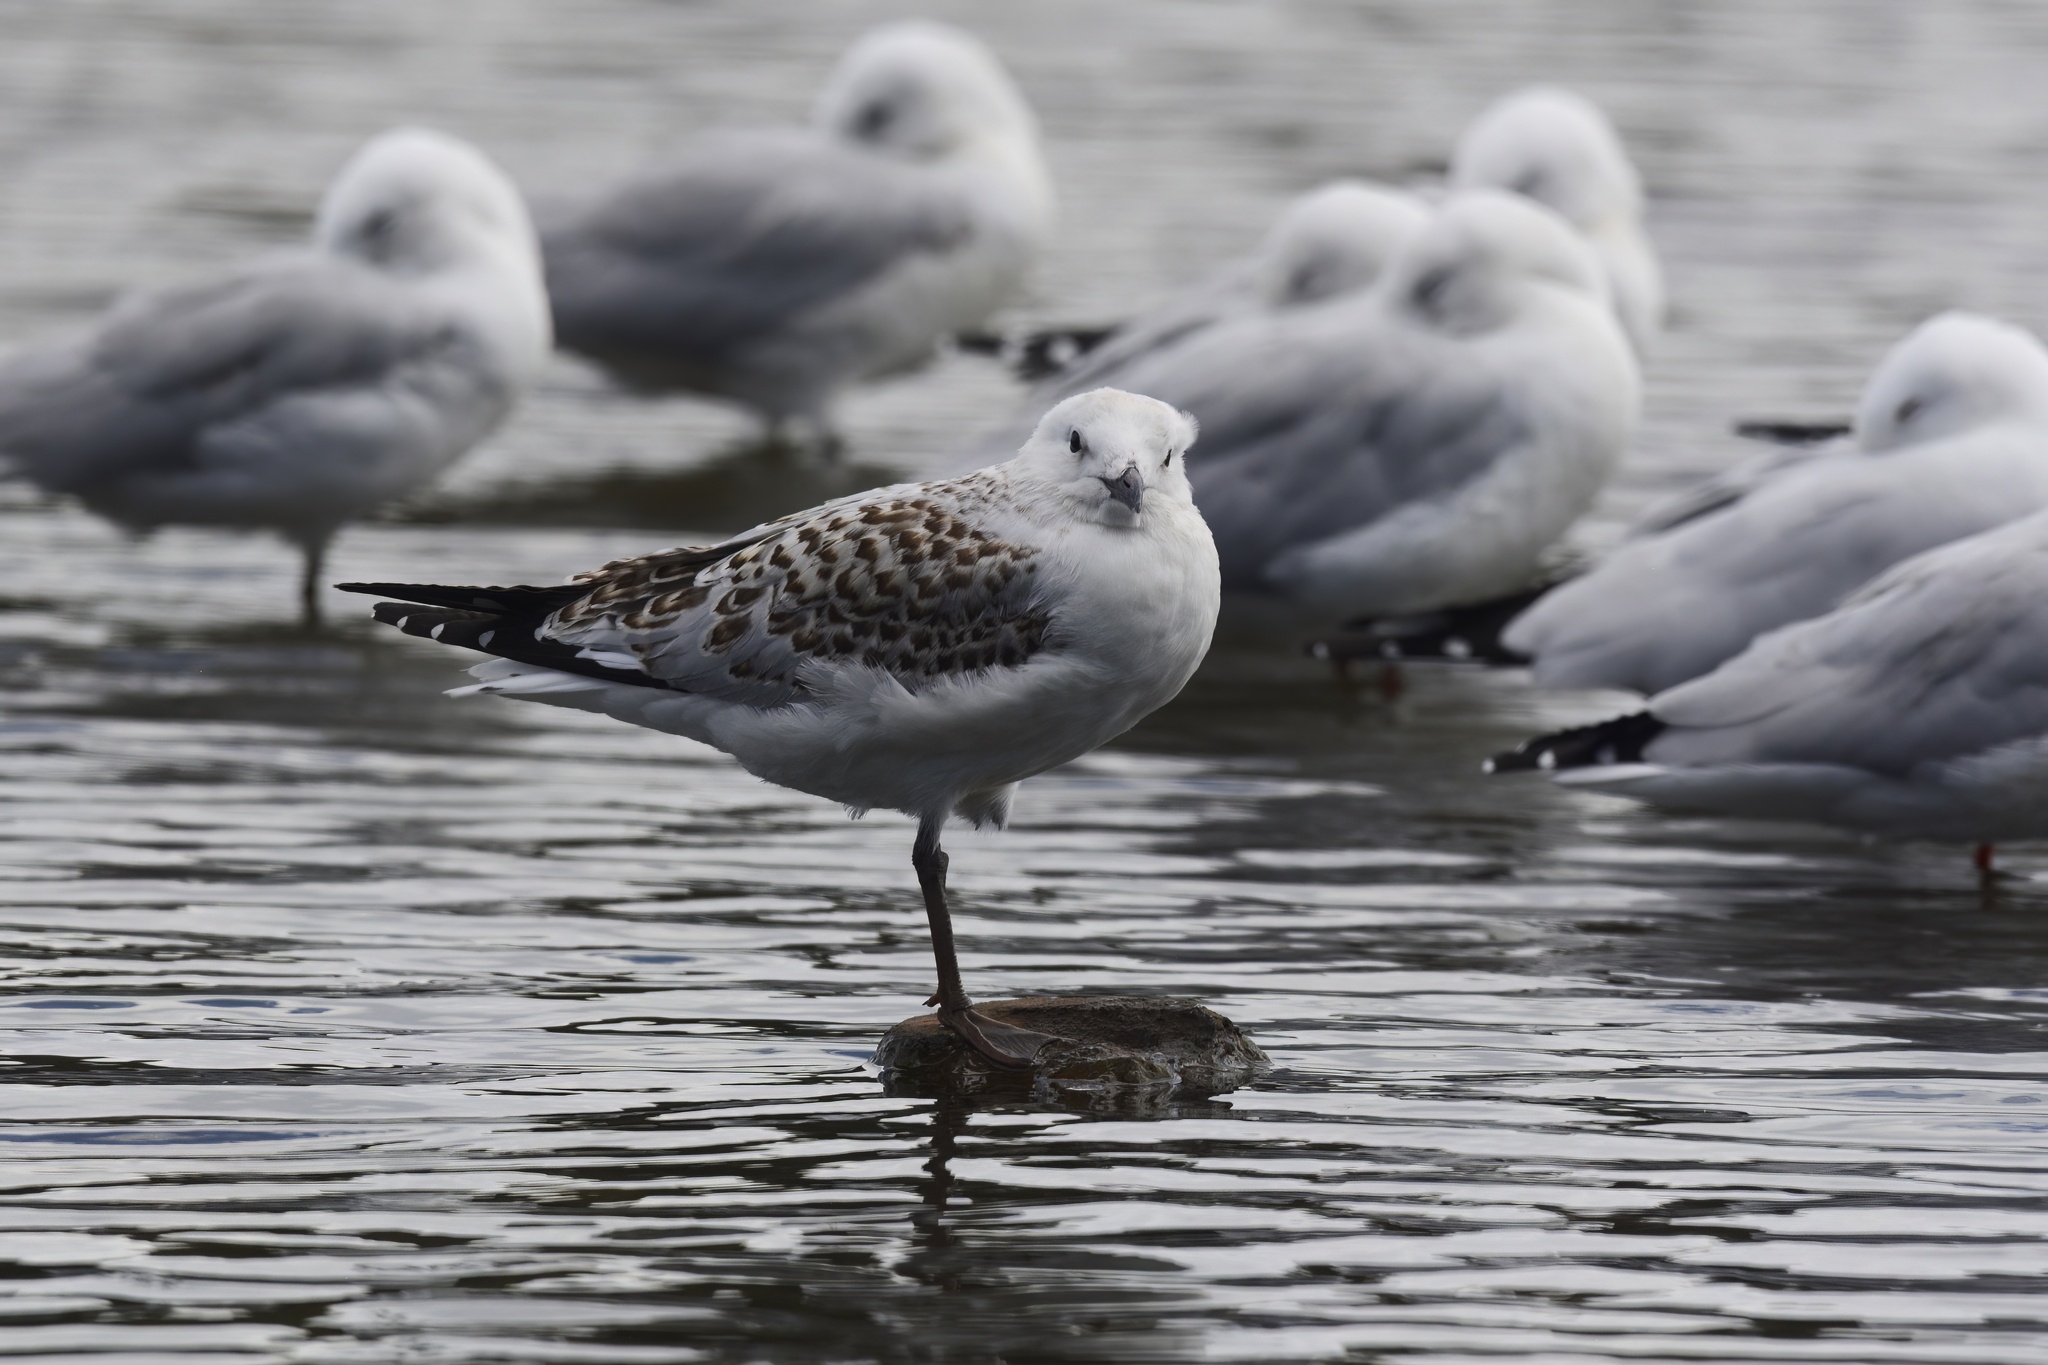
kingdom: Animalia
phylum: Chordata
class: Aves
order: Charadriiformes
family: Laridae
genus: Chroicocephalus
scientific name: Chroicocephalus novaehollandiae
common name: Silver gull
